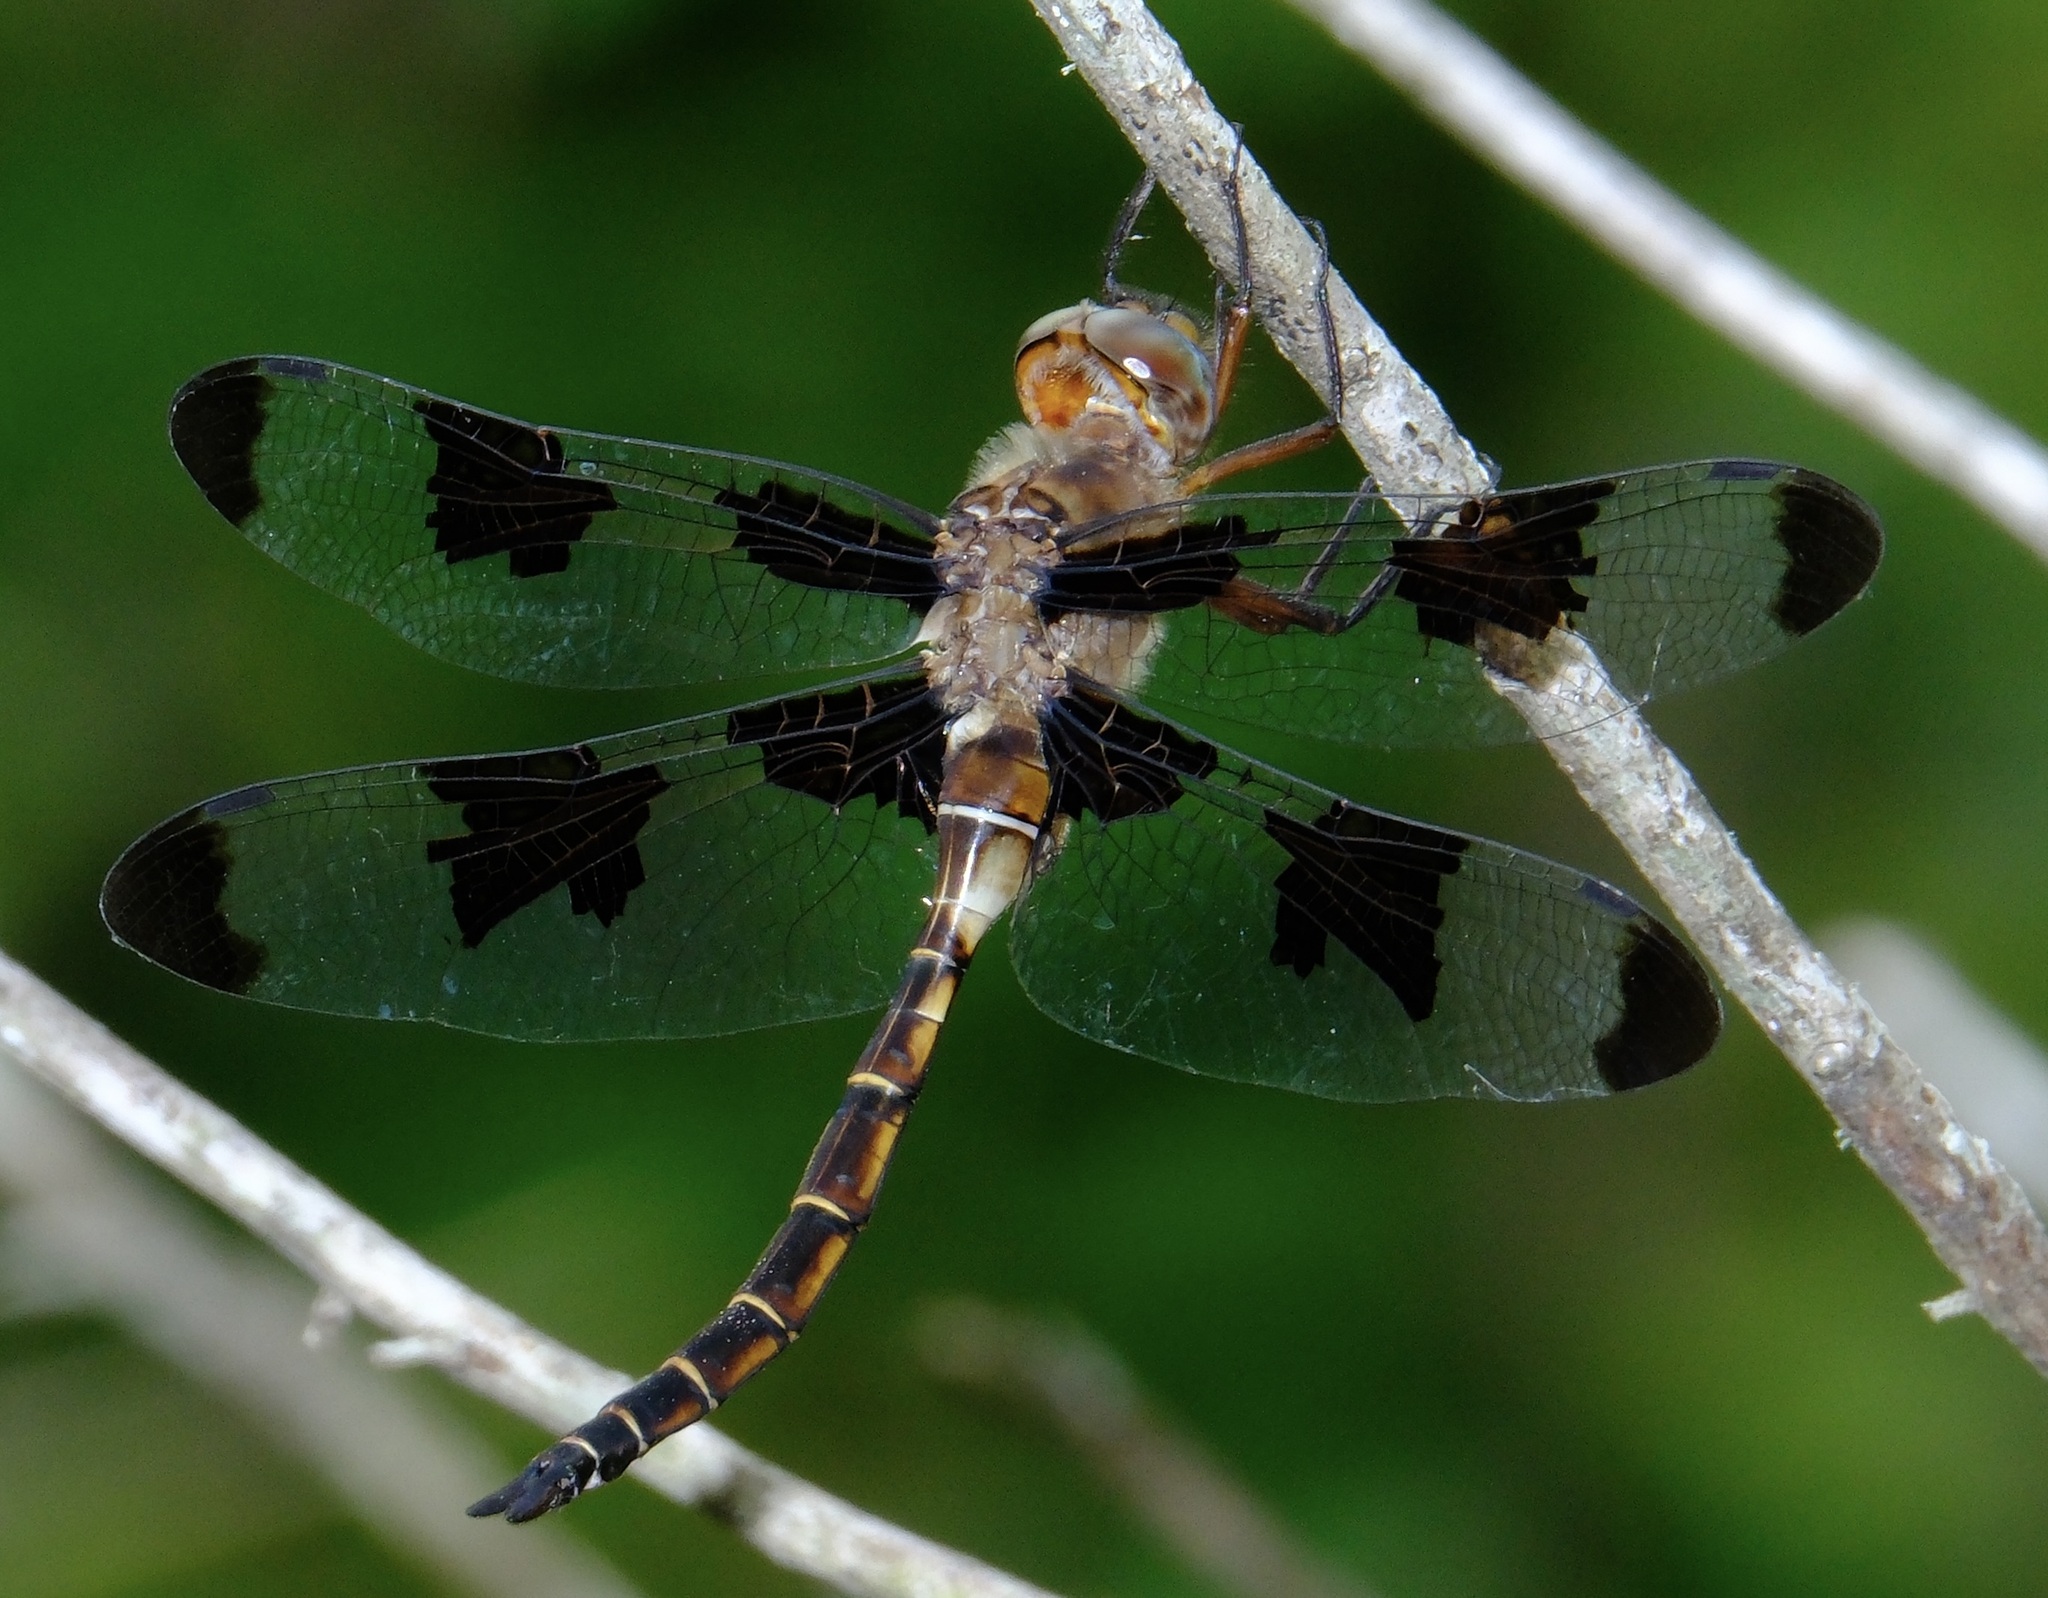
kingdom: Animalia
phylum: Arthropoda
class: Insecta
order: Odonata
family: Corduliidae
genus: Epitheca
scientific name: Epitheca princeps
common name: Prince baskettail
